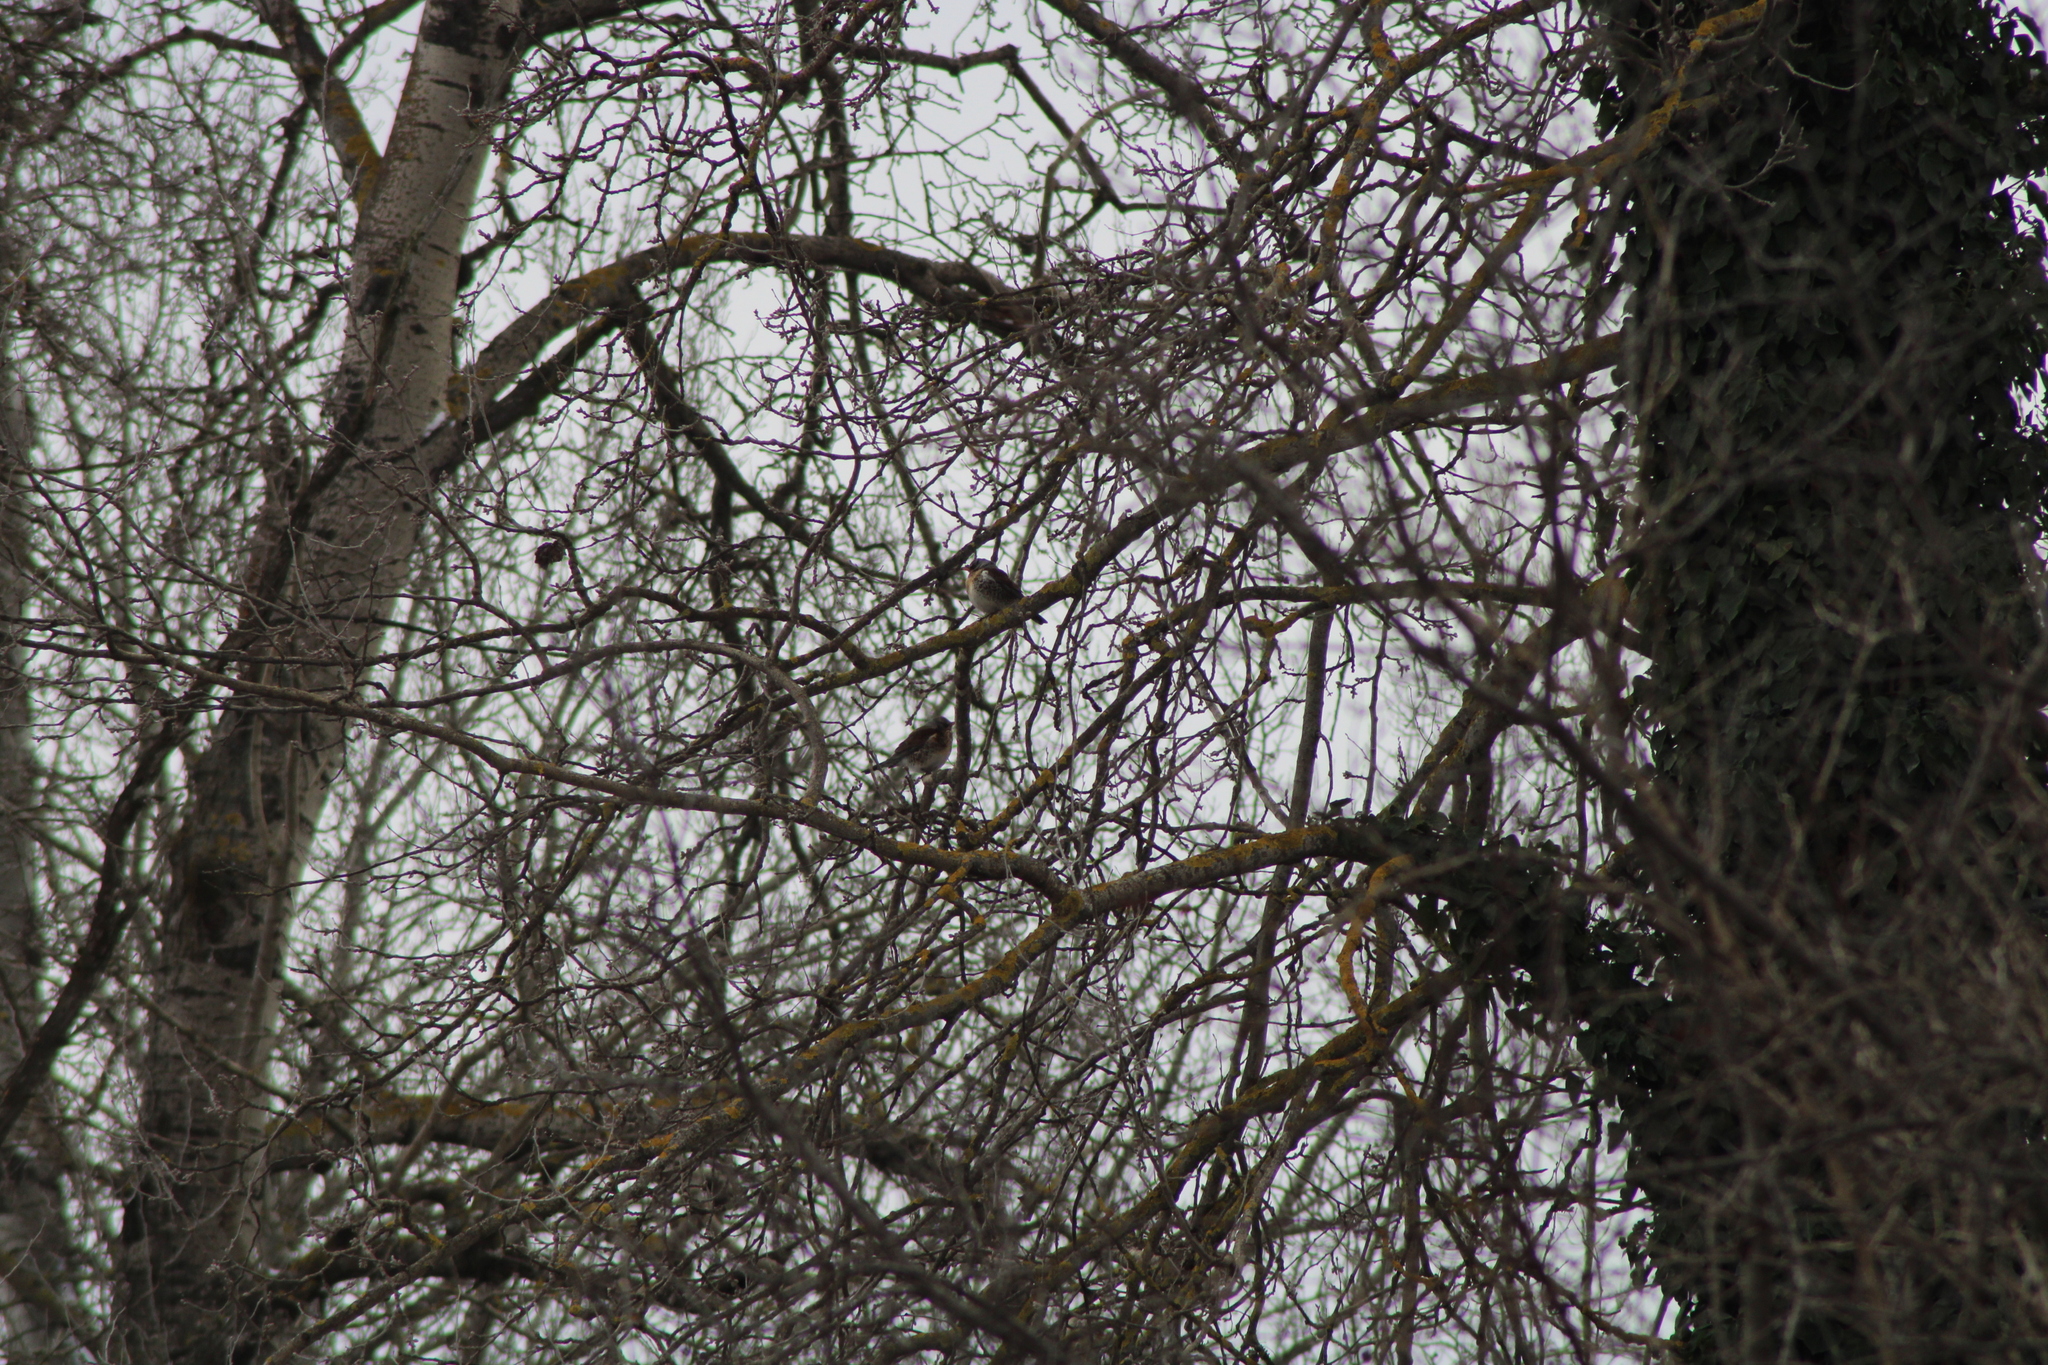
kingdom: Animalia
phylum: Chordata
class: Aves
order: Passeriformes
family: Turdidae
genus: Turdus
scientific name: Turdus pilaris
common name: Fieldfare
